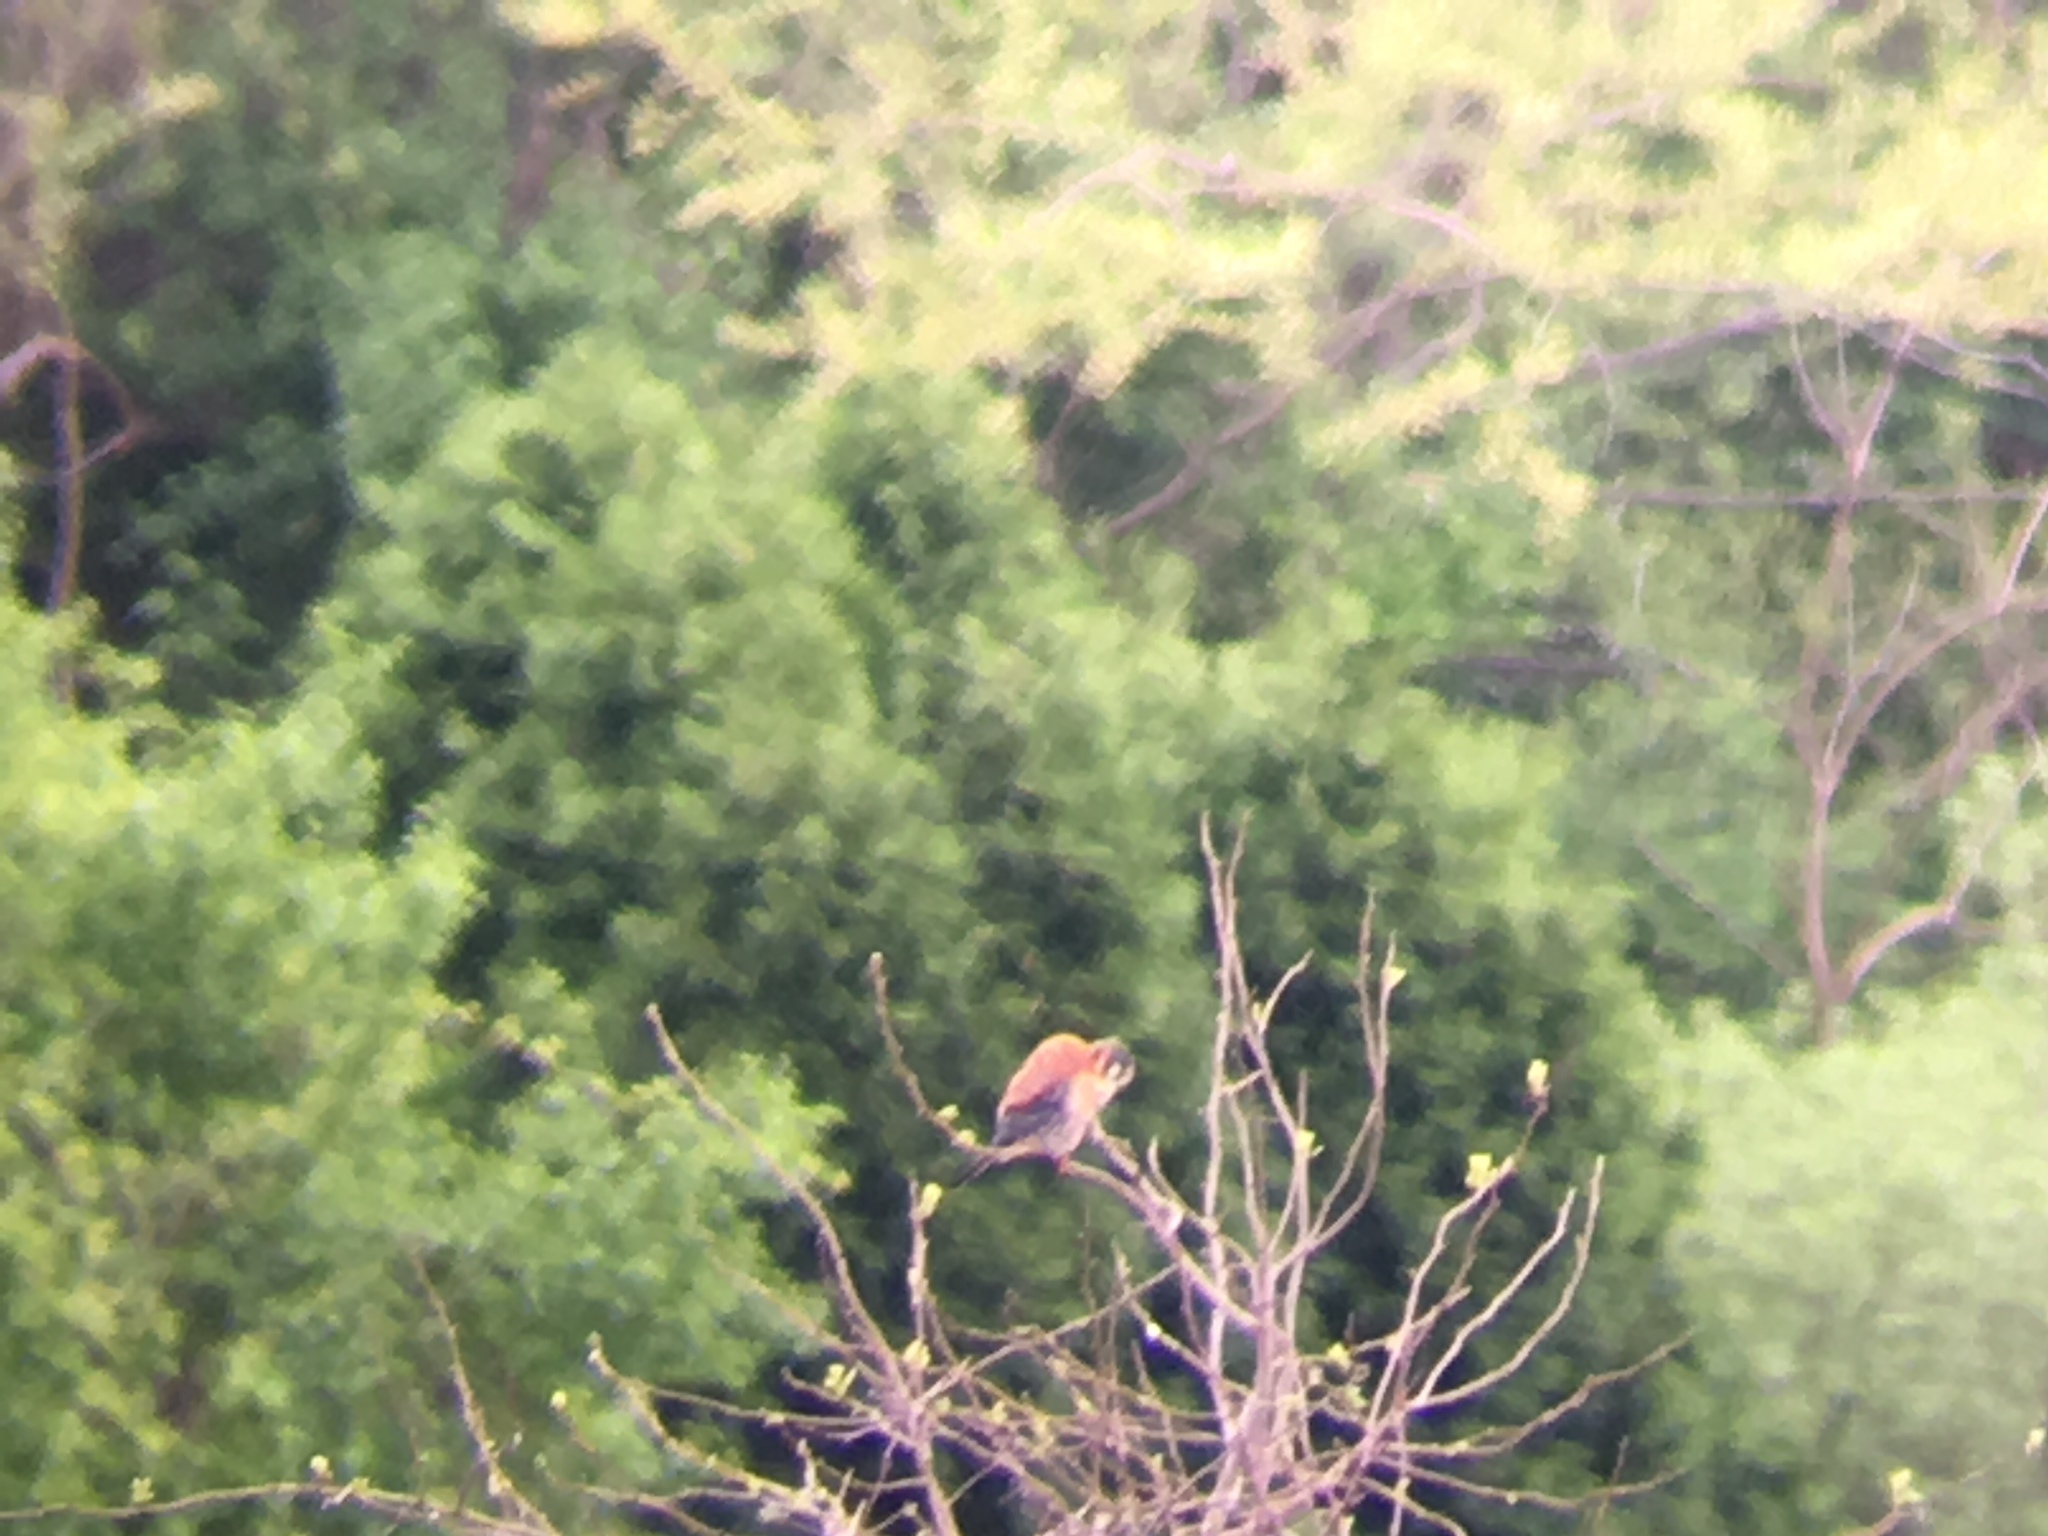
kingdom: Animalia
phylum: Chordata
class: Aves
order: Falconiformes
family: Falconidae
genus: Falco
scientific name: Falco sparverius
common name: American kestrel
